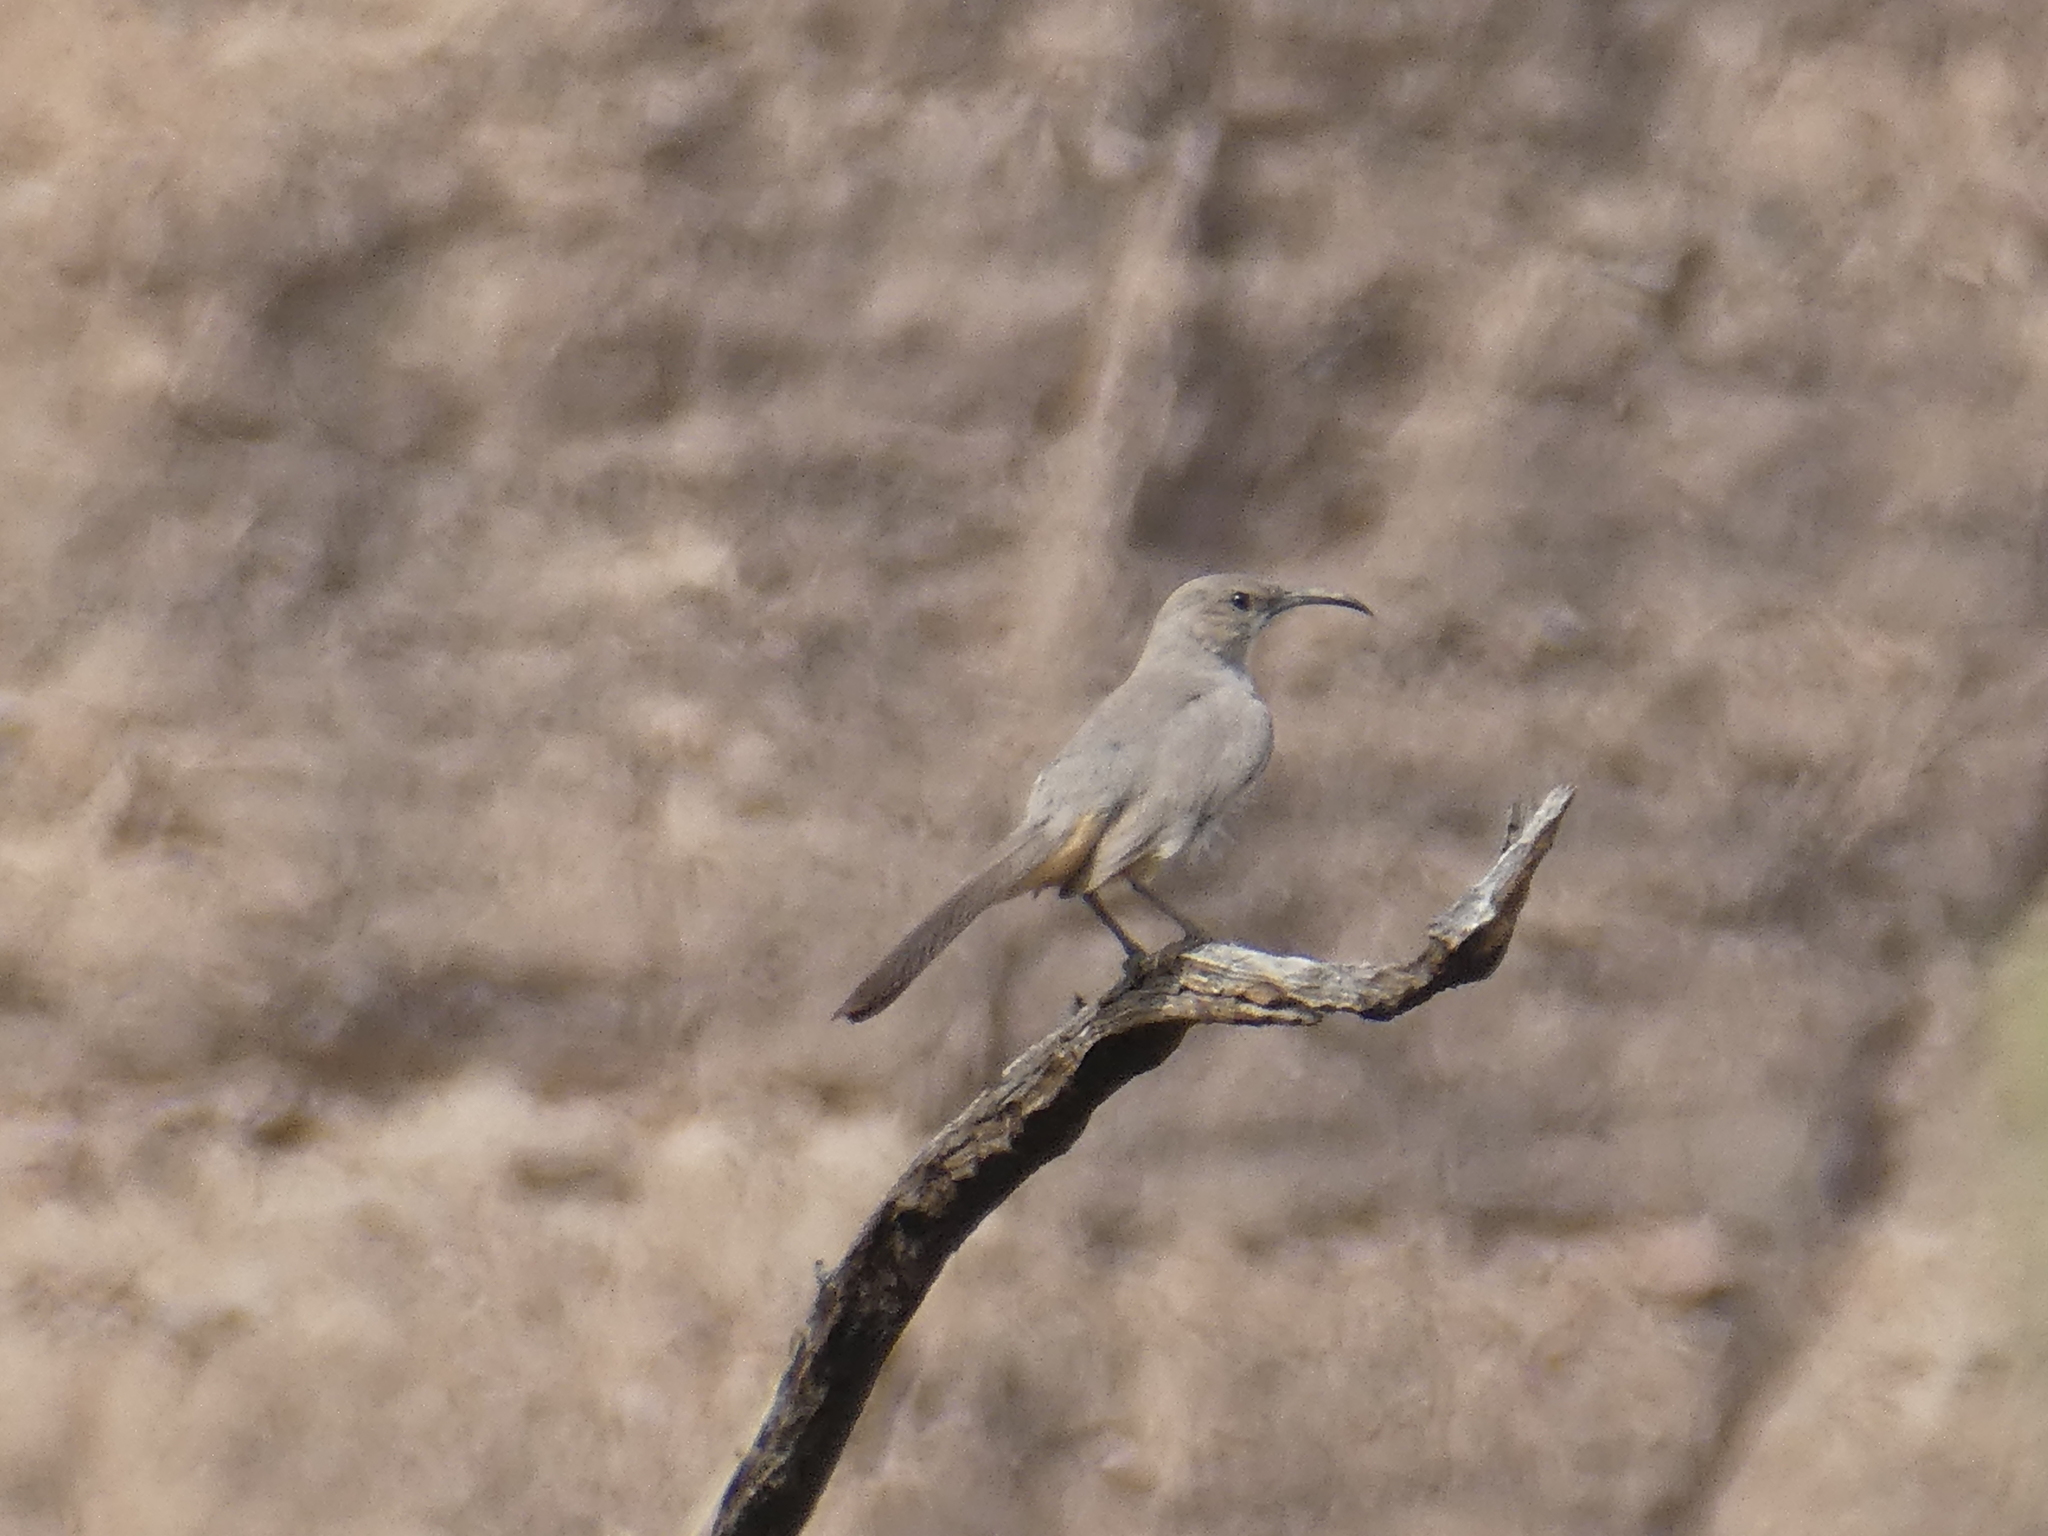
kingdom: Animalia
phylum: Chordata
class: Aves
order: Passeriformes
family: Mimidae
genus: Toxostoma
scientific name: Toxostoma lecontei
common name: Le conte's thrasher
